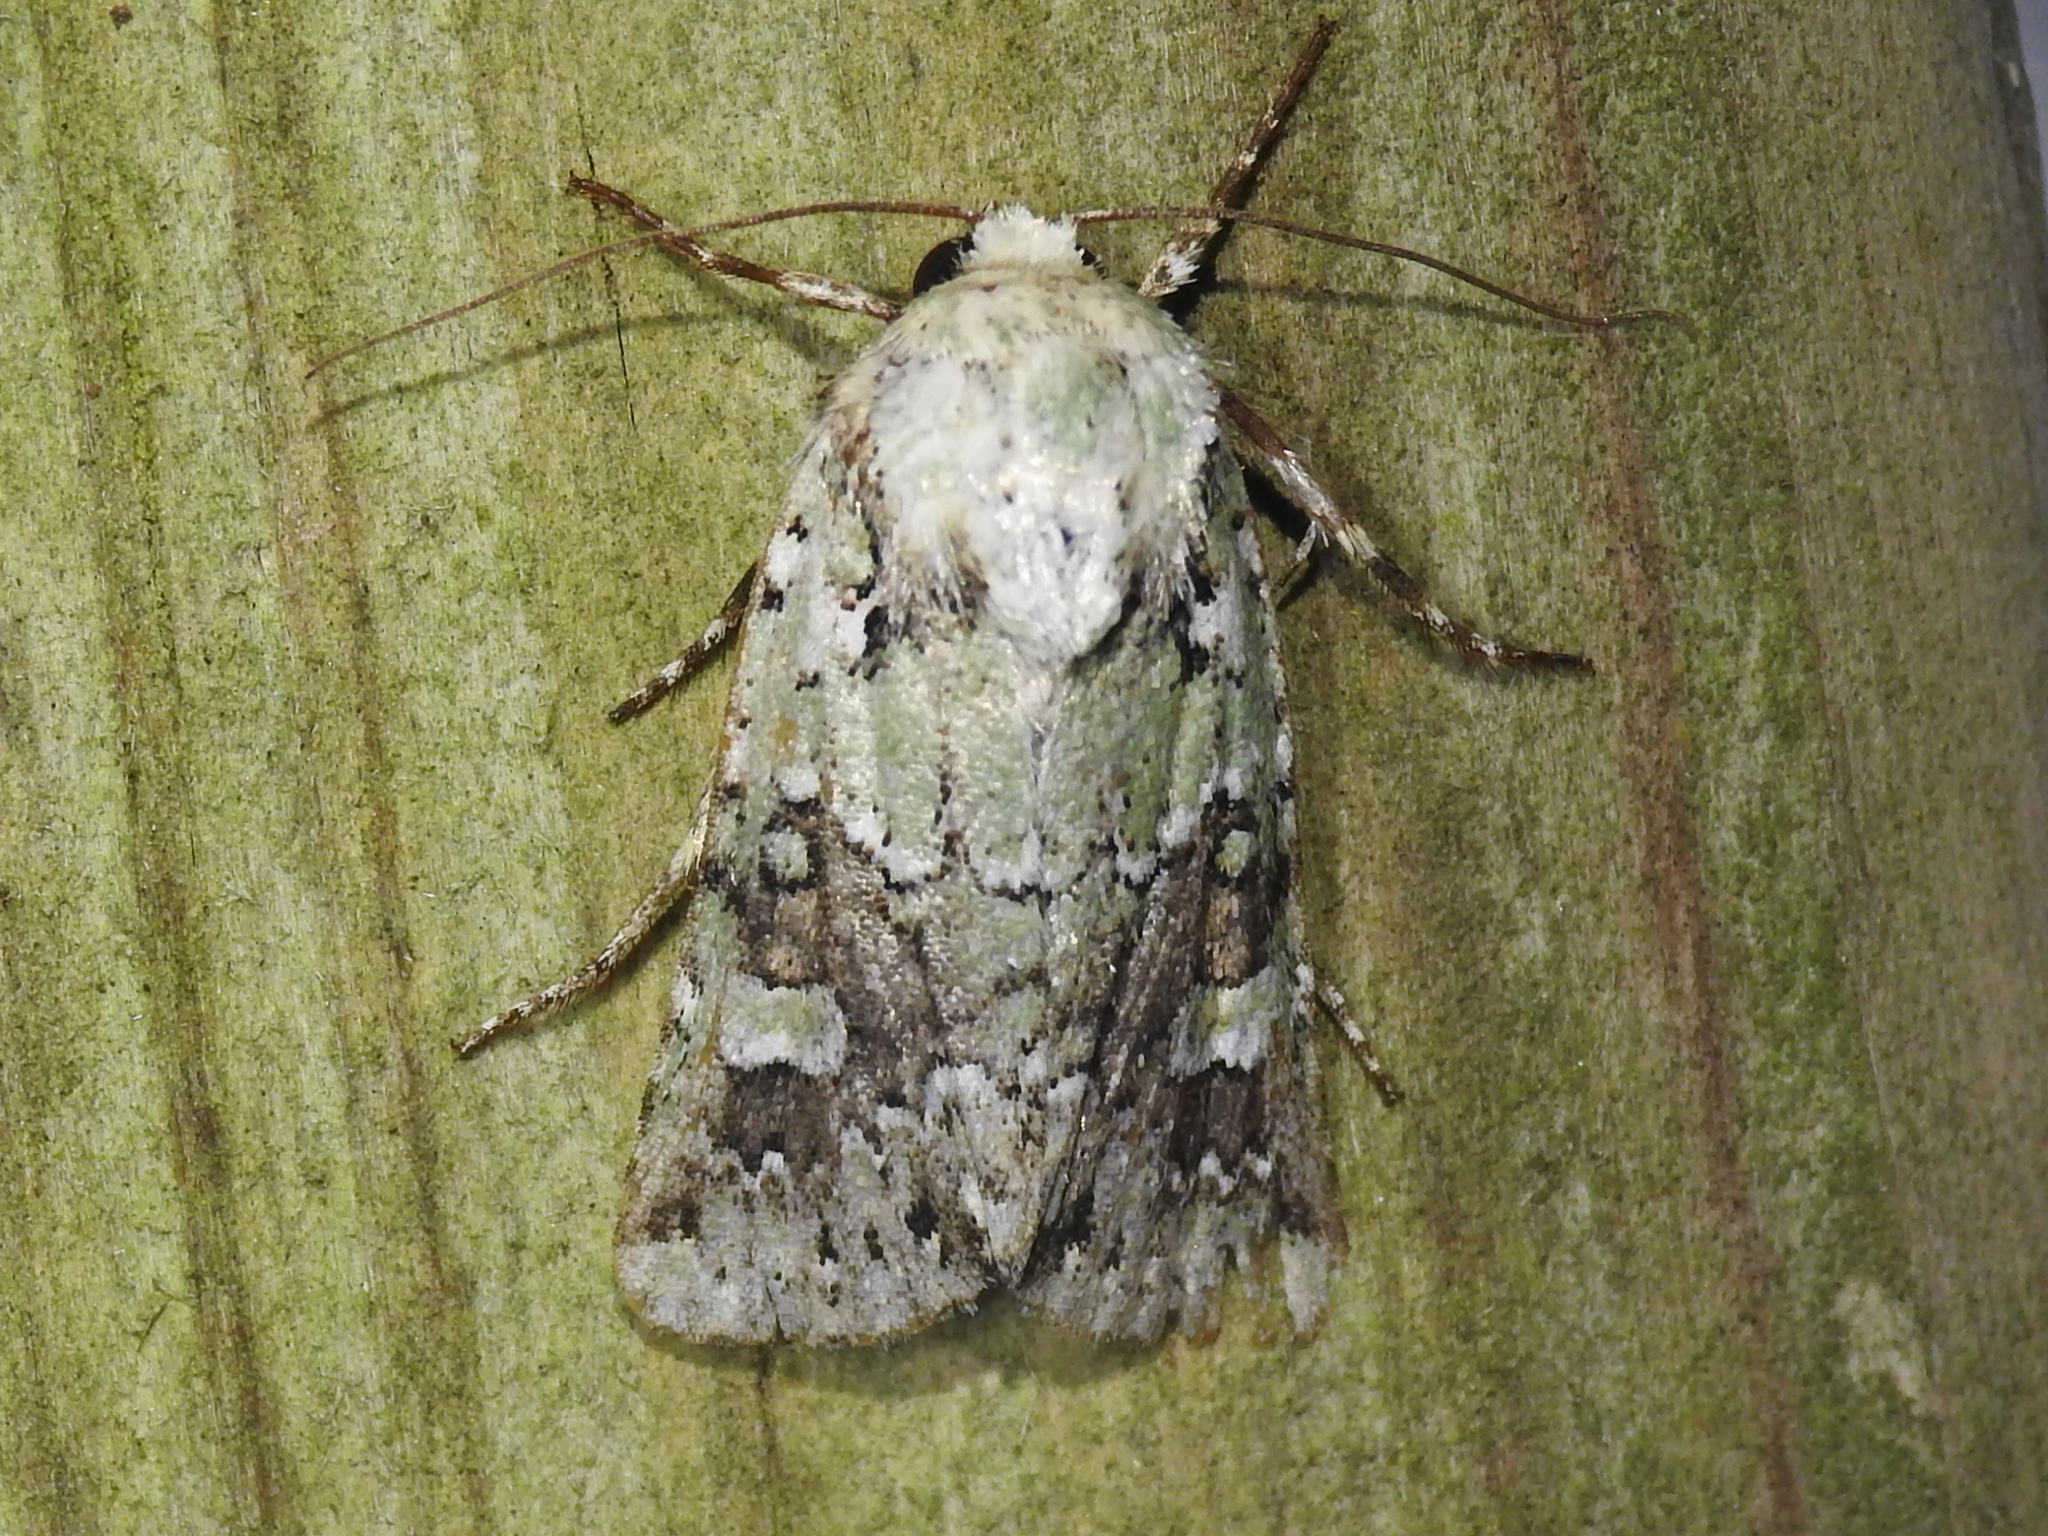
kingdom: Animalia
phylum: Arthropoda
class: Insecta
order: Lepidoptera
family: Noctuidae
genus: Lacinipolia
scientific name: Lacinipolia laudabilis
